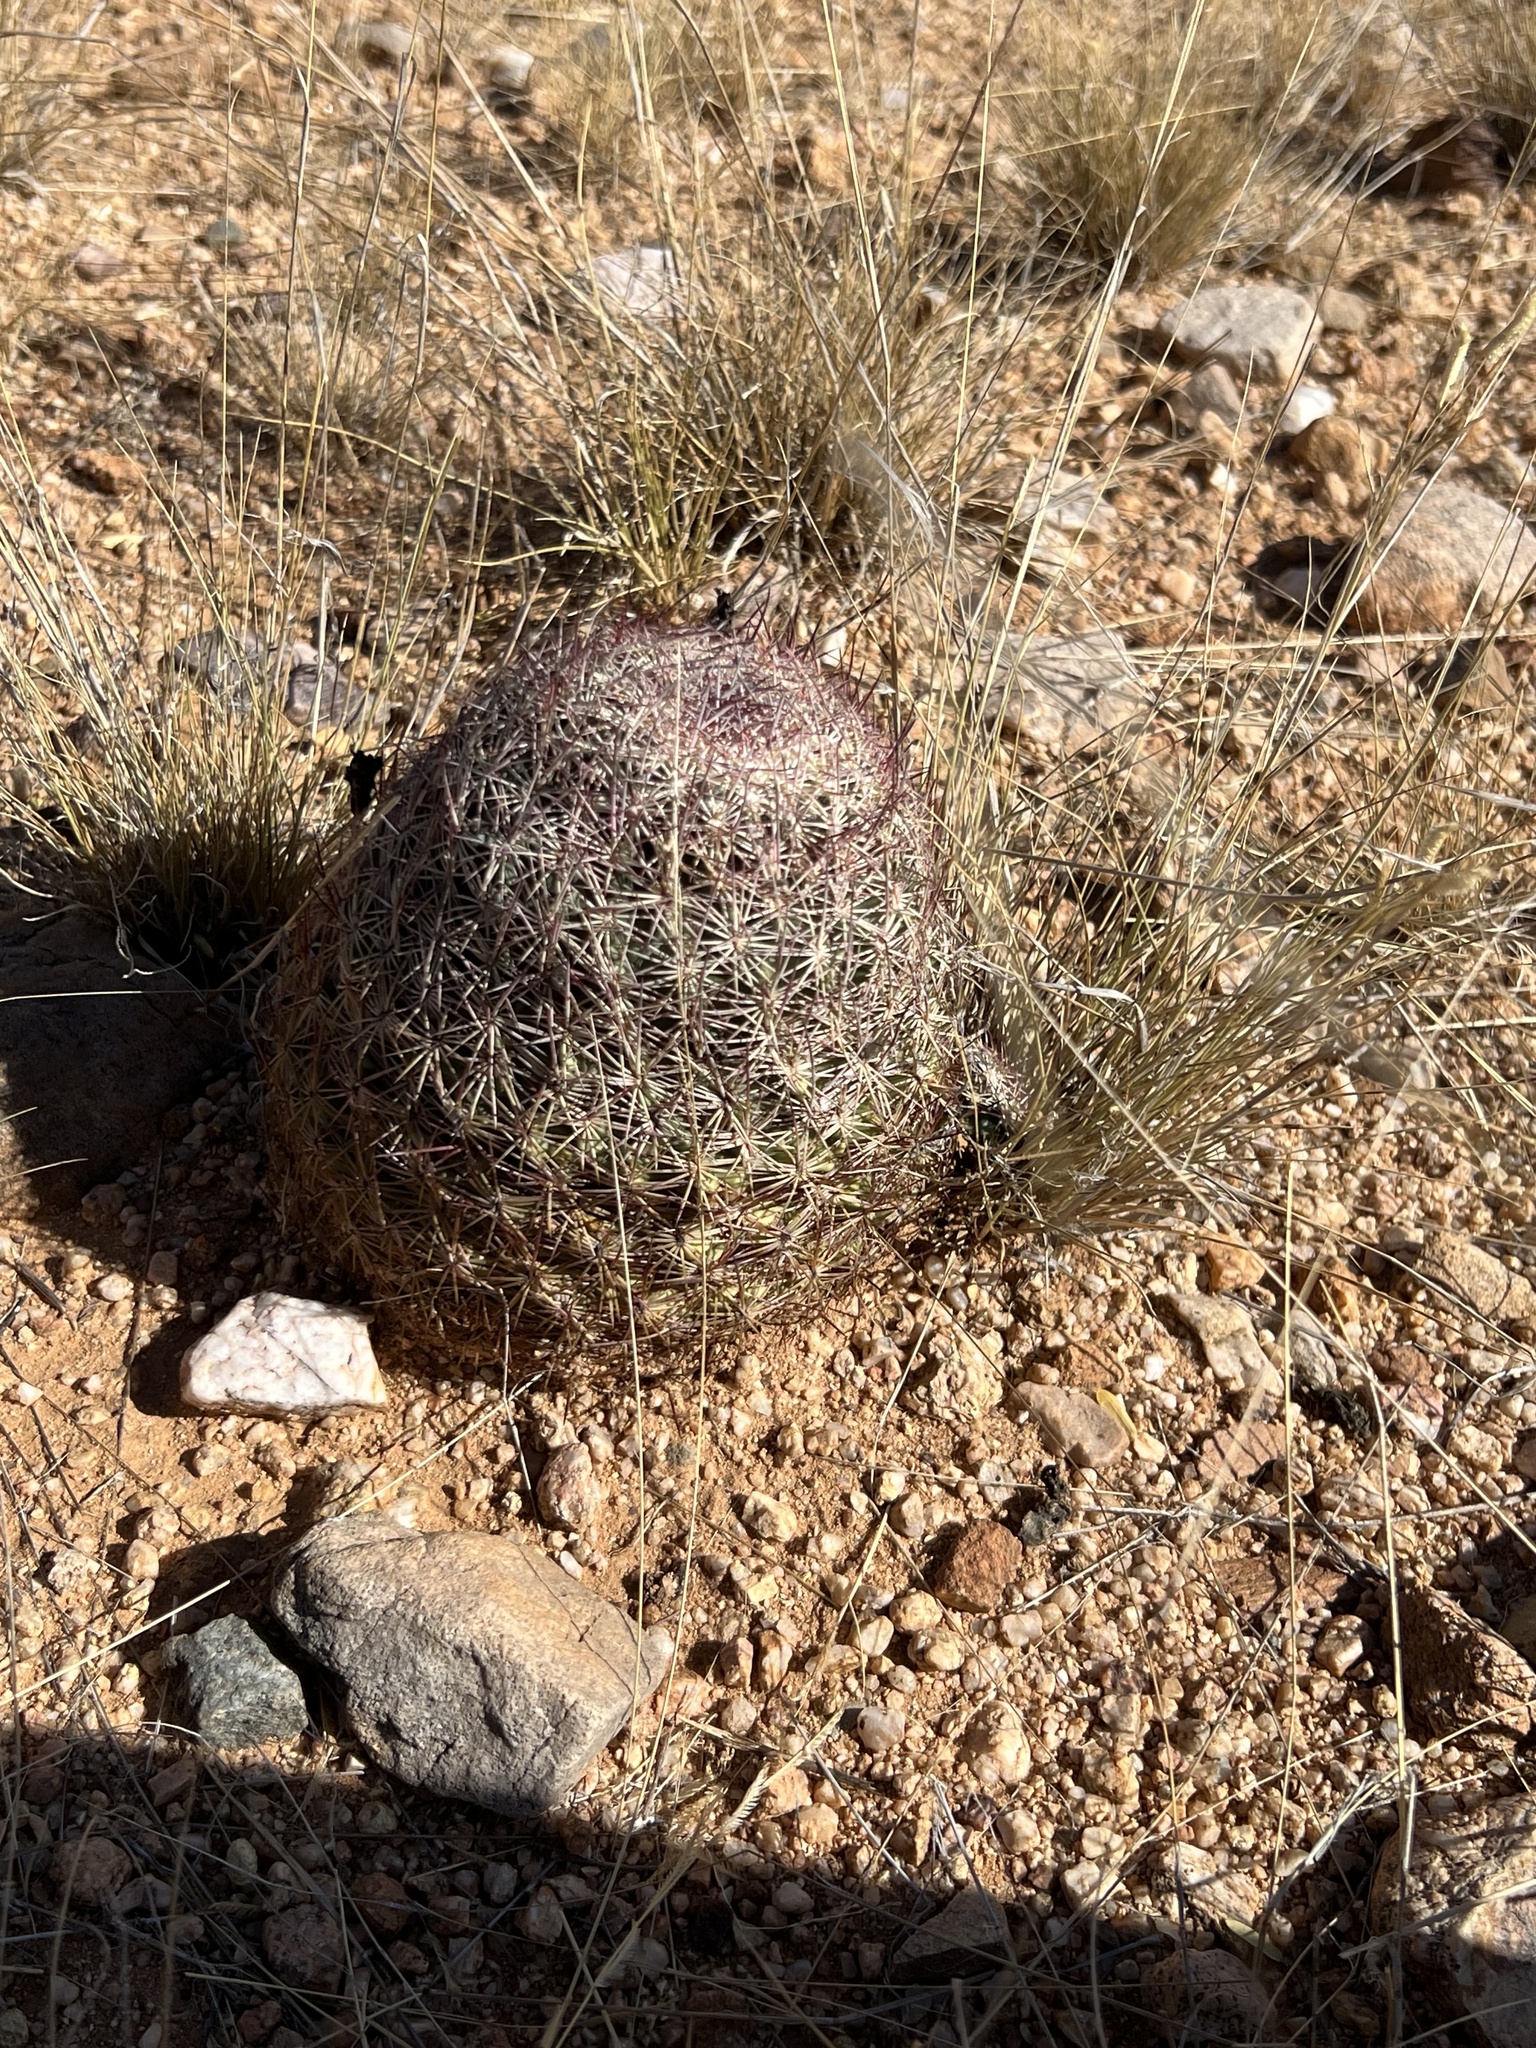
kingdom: Plantae
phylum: Tracheophyta
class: Magnoliopsida
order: Caryophyllales
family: Cactaceae
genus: Sclerocactus
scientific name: Sclerocactus johnsonii
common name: Eight-spine fishhook cactus
